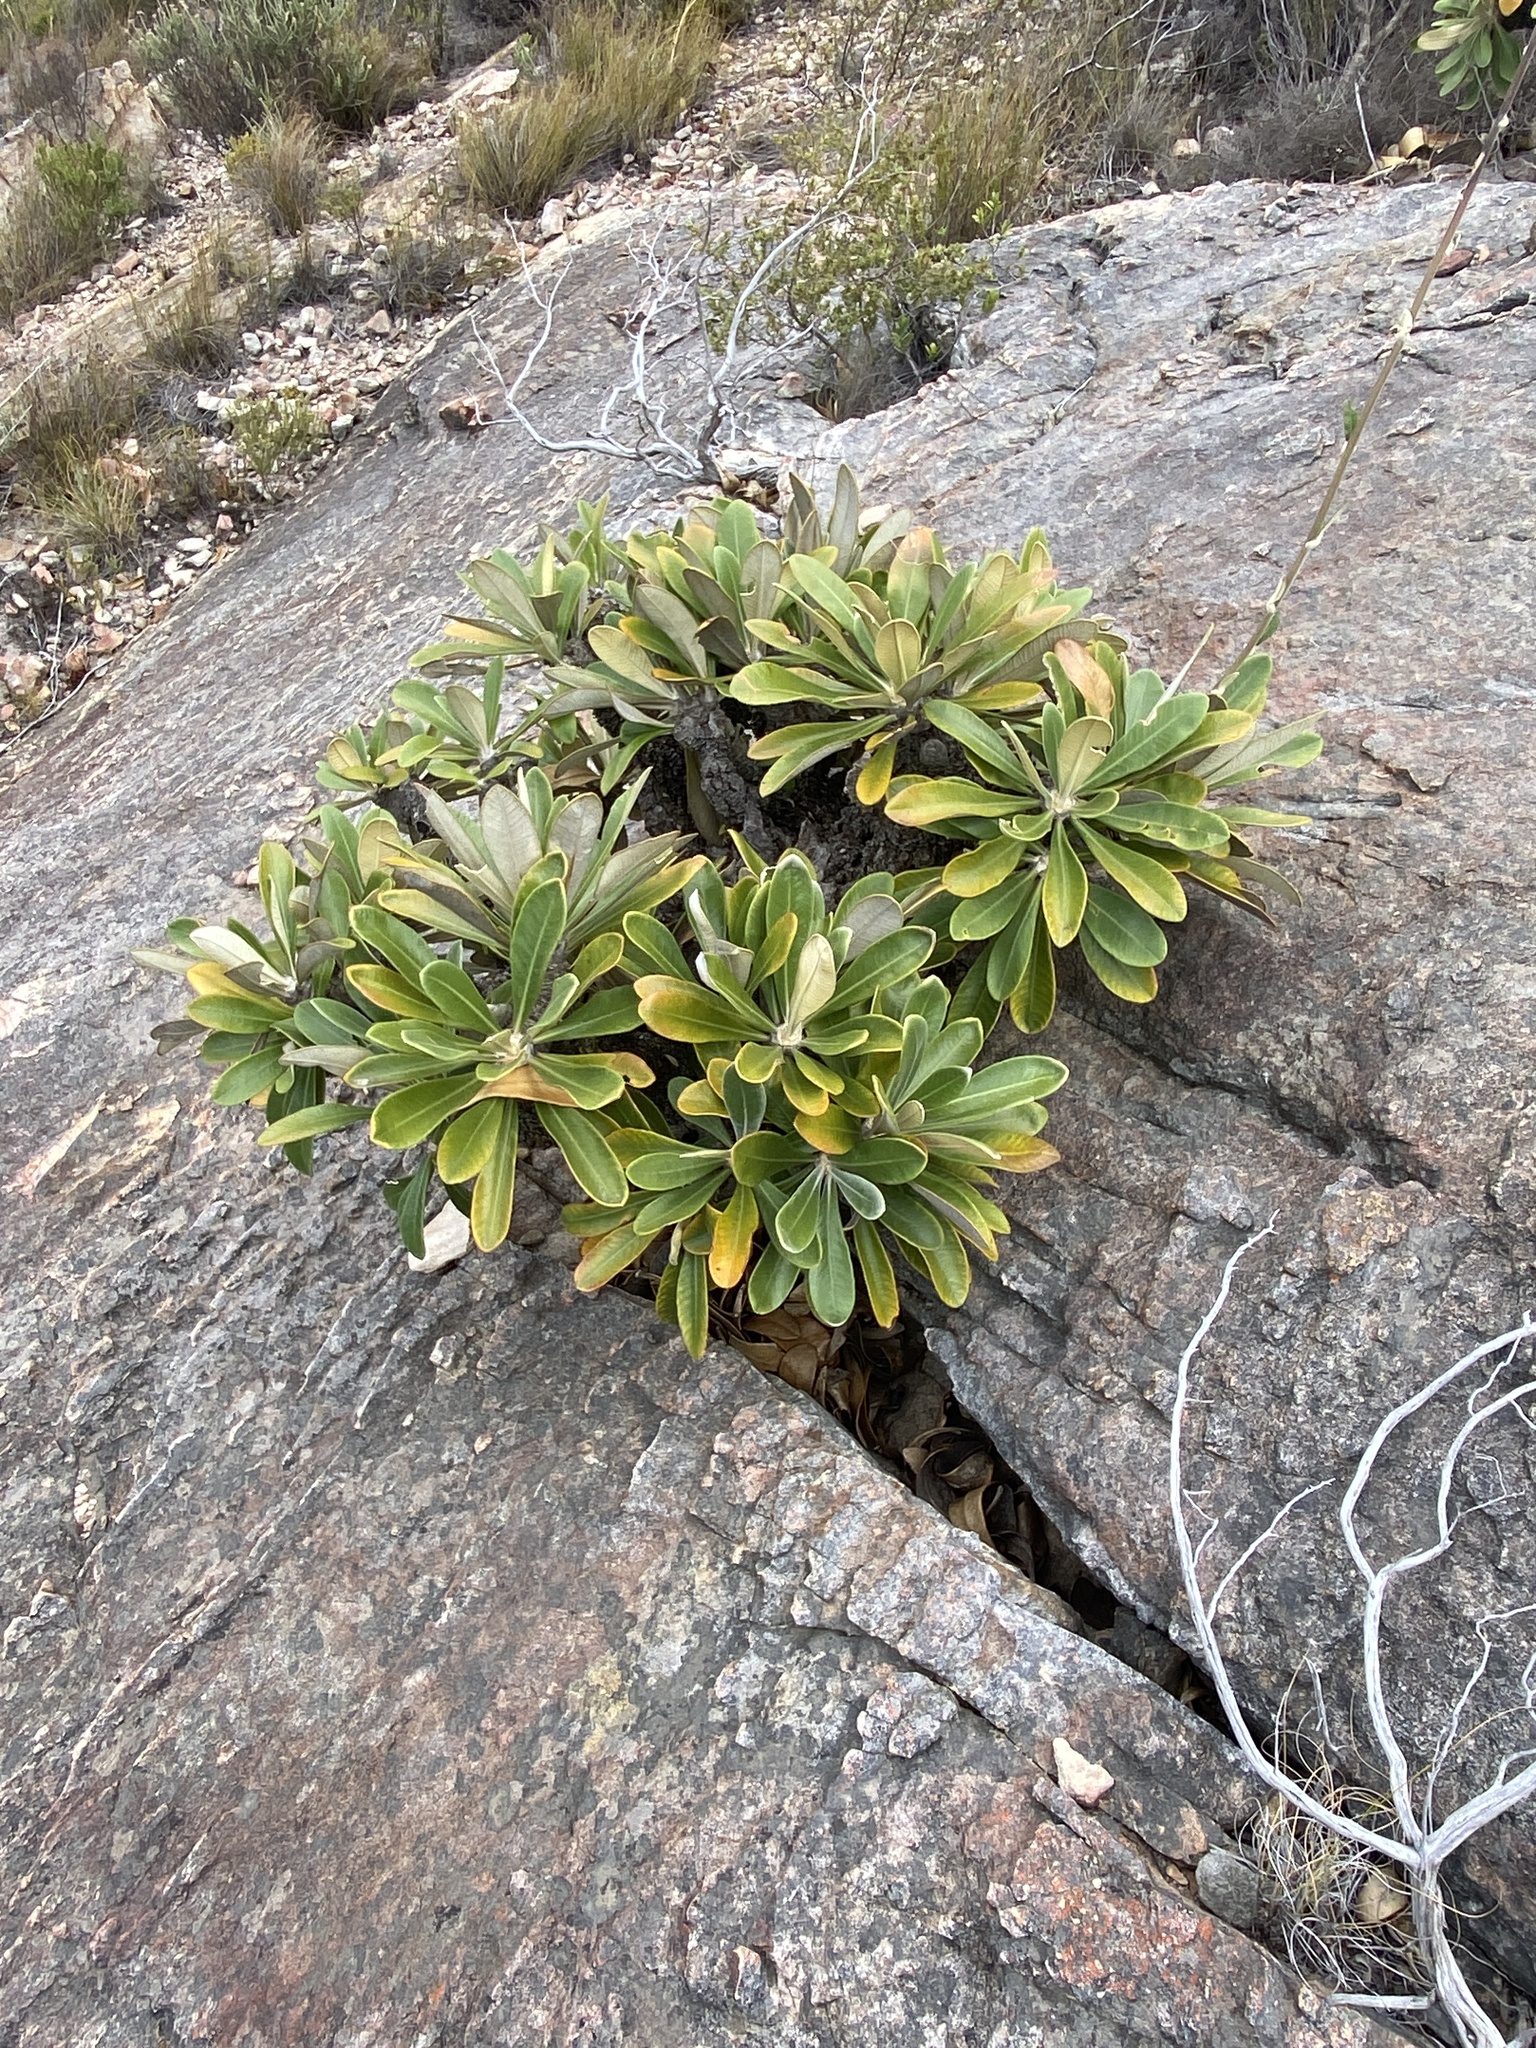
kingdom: Plantae
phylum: Tracheophyta
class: Magnoliopsida
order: Asterales
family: Asteraceae
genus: Oldenburgia
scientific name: Oldenburgia papionum
